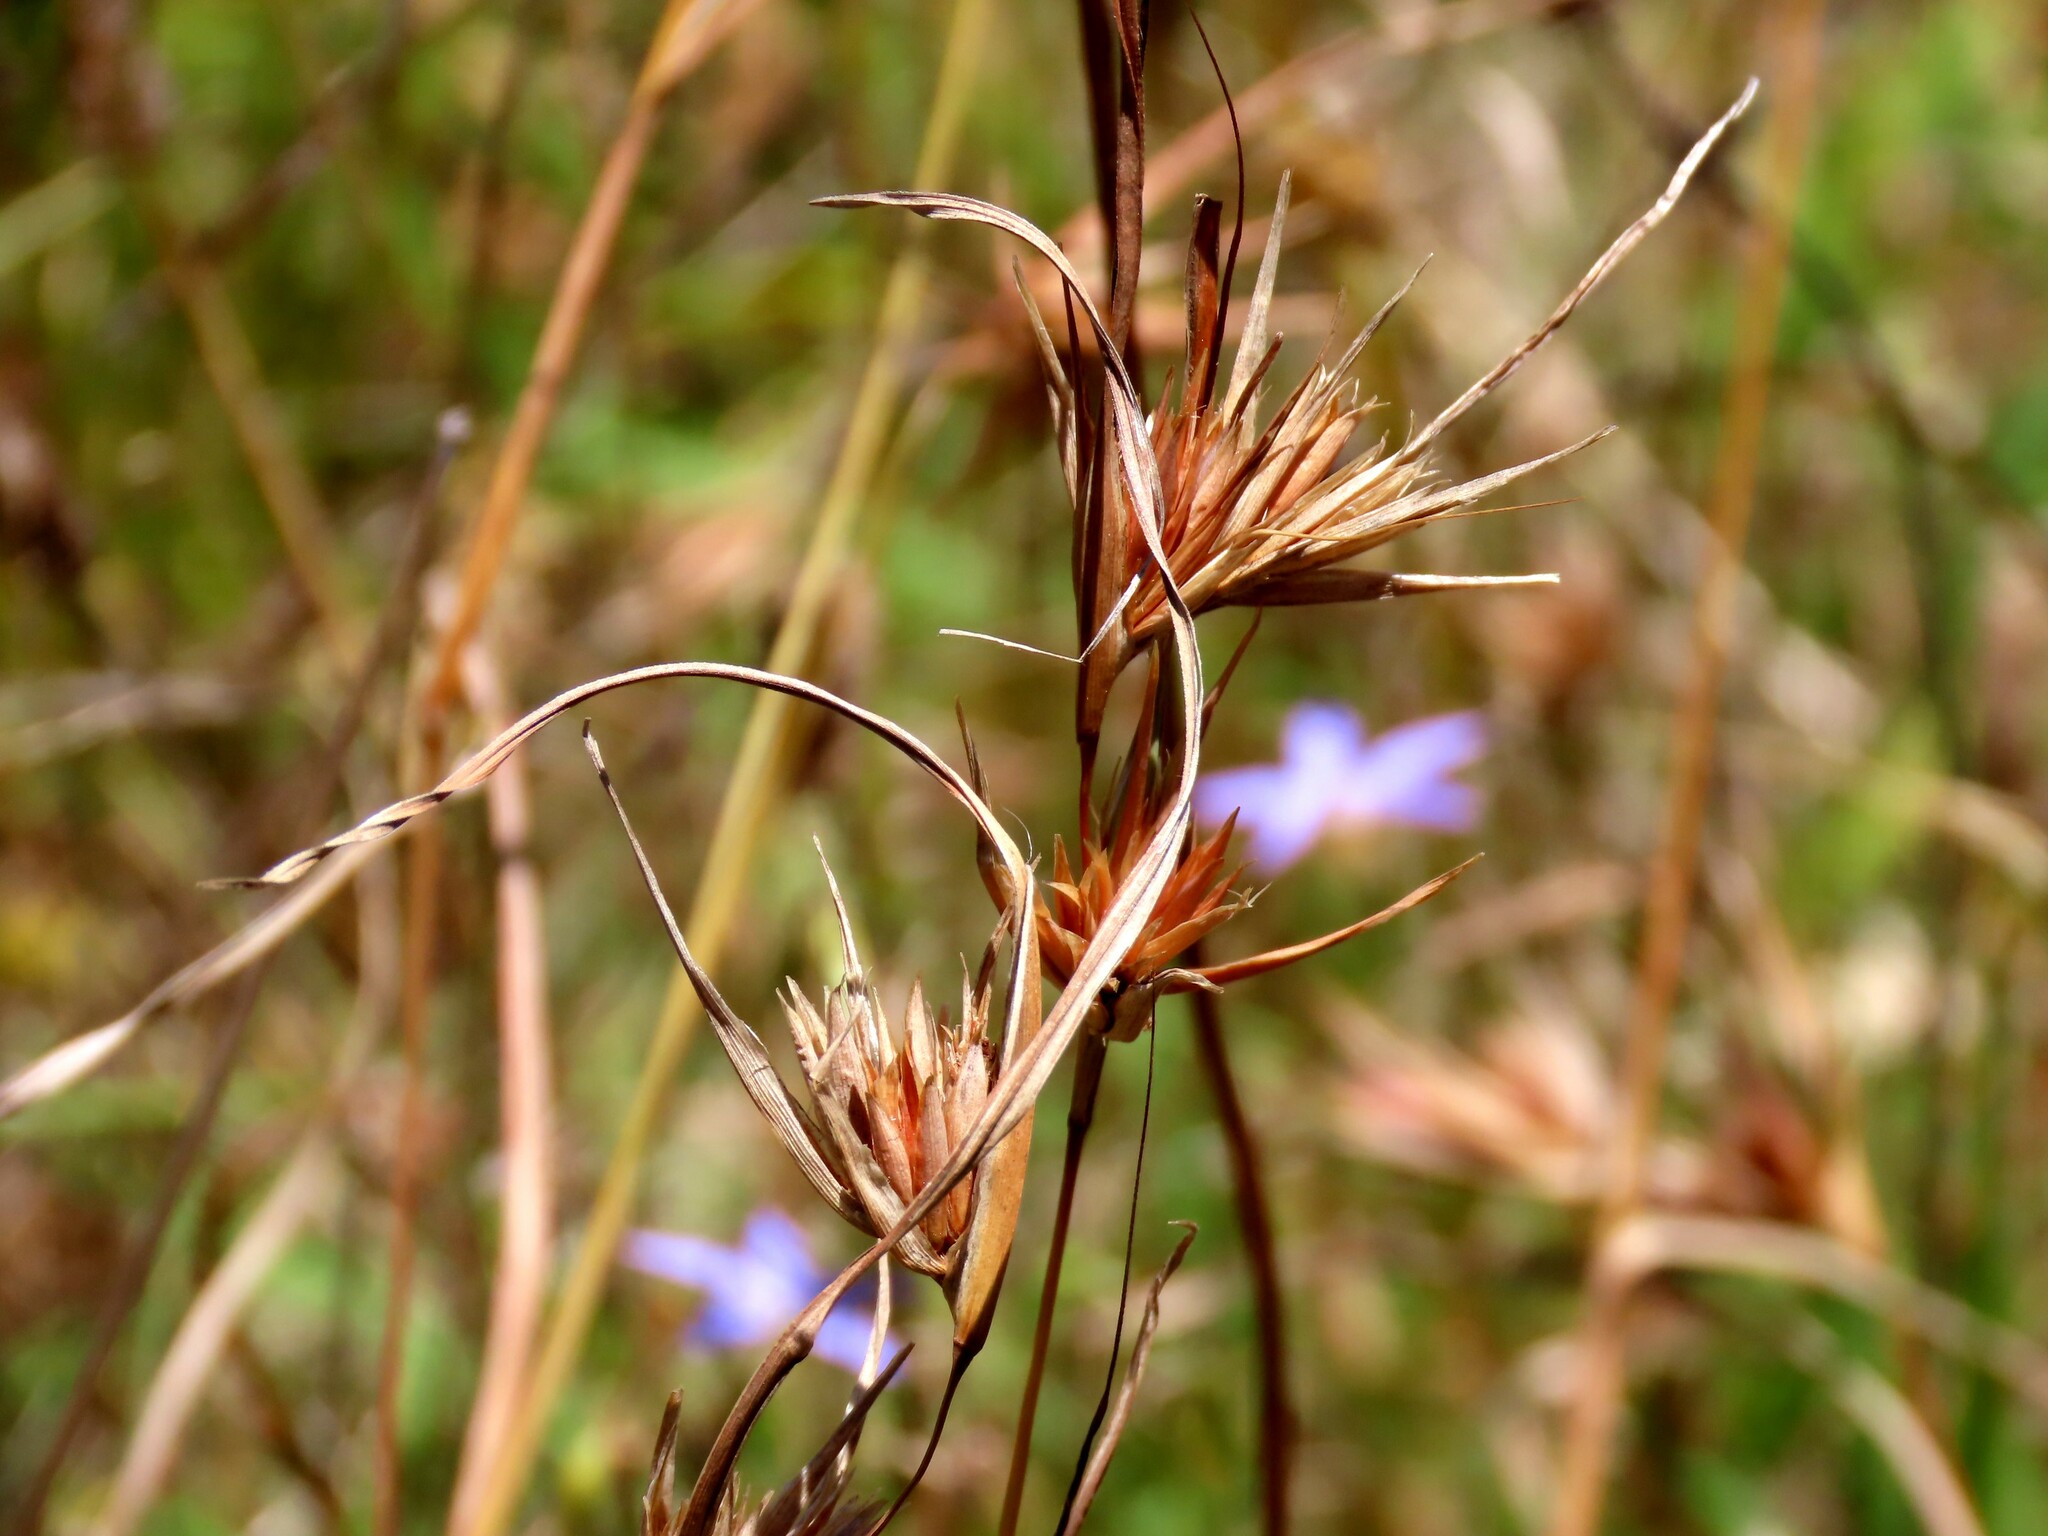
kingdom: Plantae
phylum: Tracheophyta
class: Liliopsida
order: Poales
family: Poaceae
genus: Themeda
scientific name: Themeda triandra
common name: Kangaroo grass
